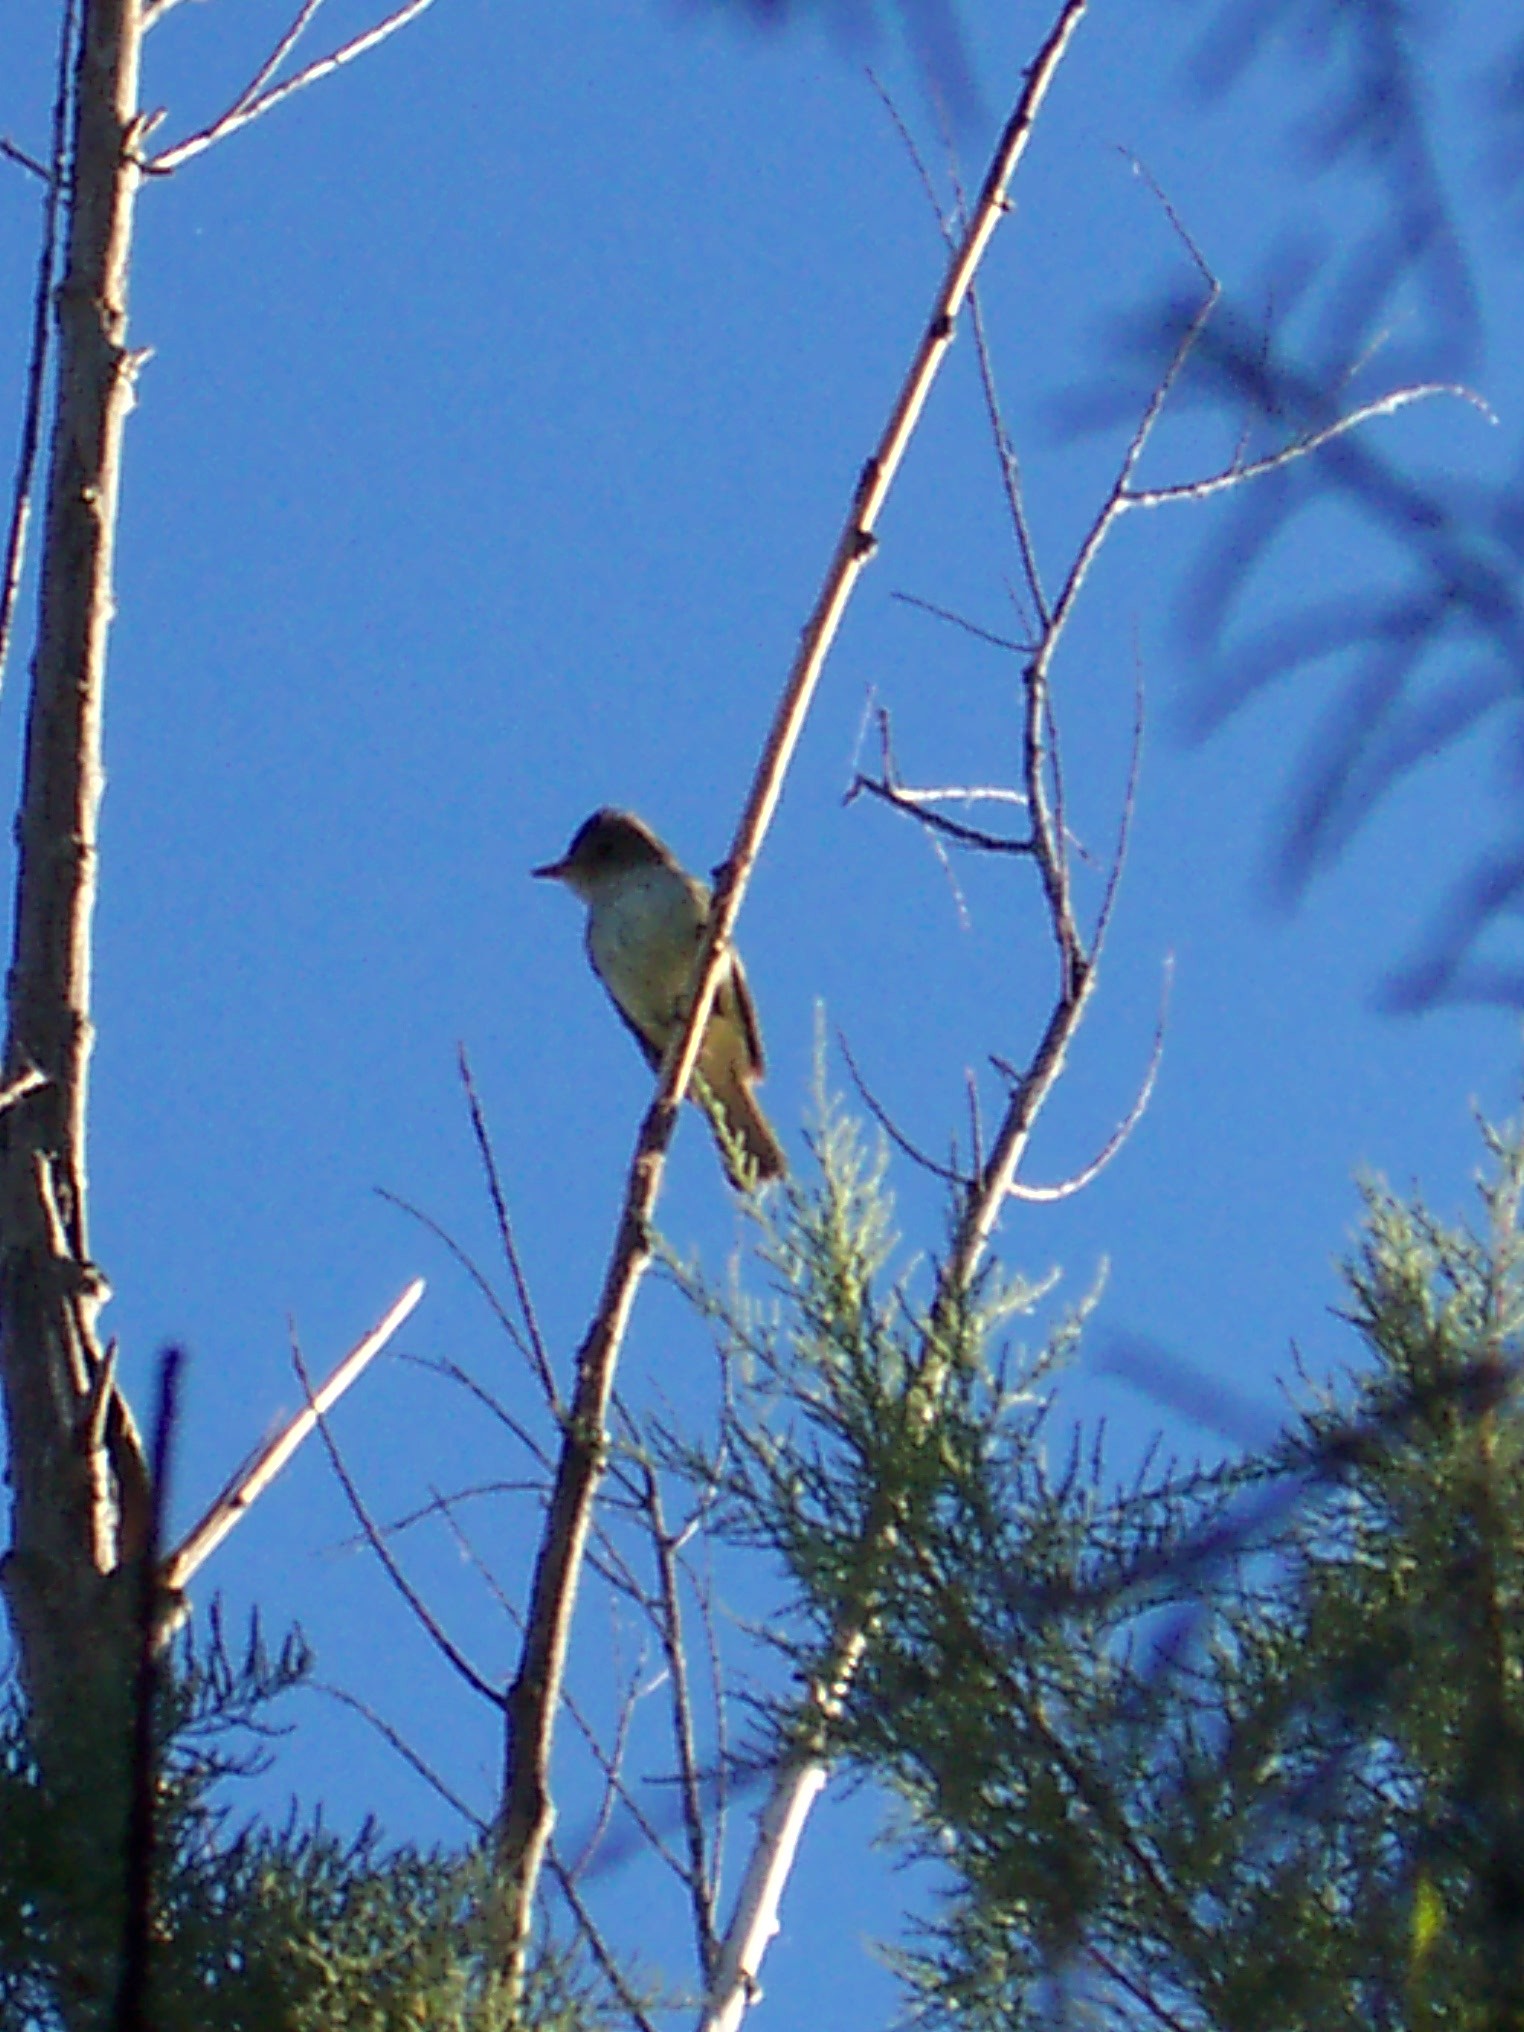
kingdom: Animalia
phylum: Chordata
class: Aves
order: Passeriformes
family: Tyrannidae
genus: Empidonax
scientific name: Empidonax traillii
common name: Willow flycatcher
